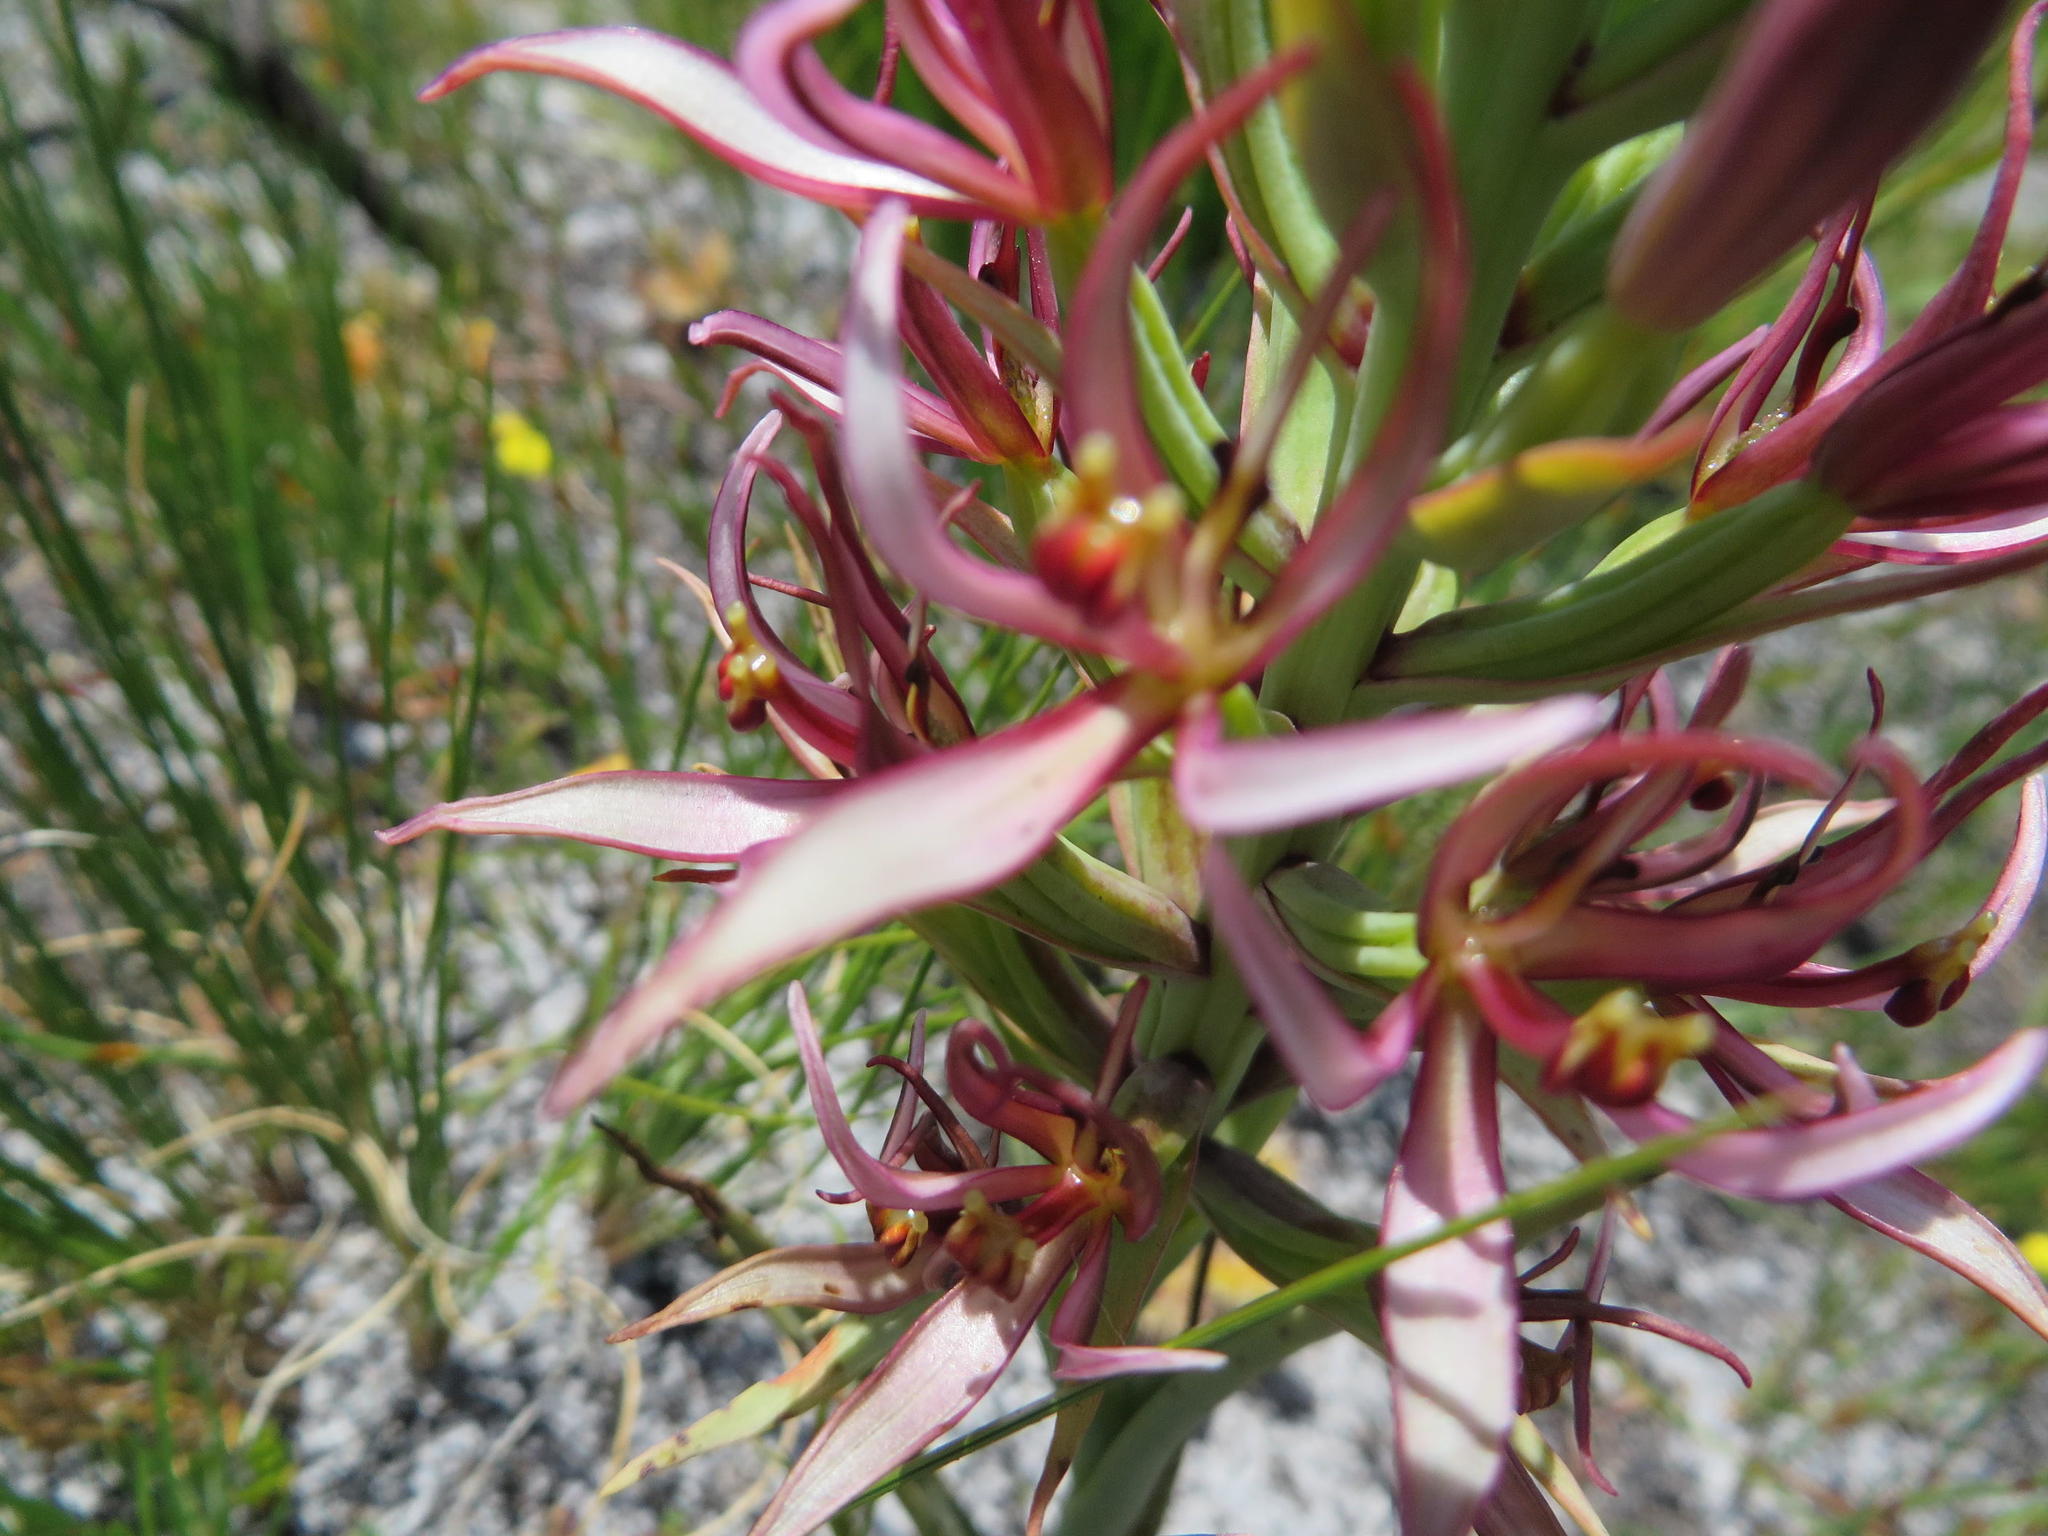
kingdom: Plantae
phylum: Tracheophyta
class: Liliopsida
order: Asparagales
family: Orchidaceae
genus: Pachites
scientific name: Pachites bodkinii
